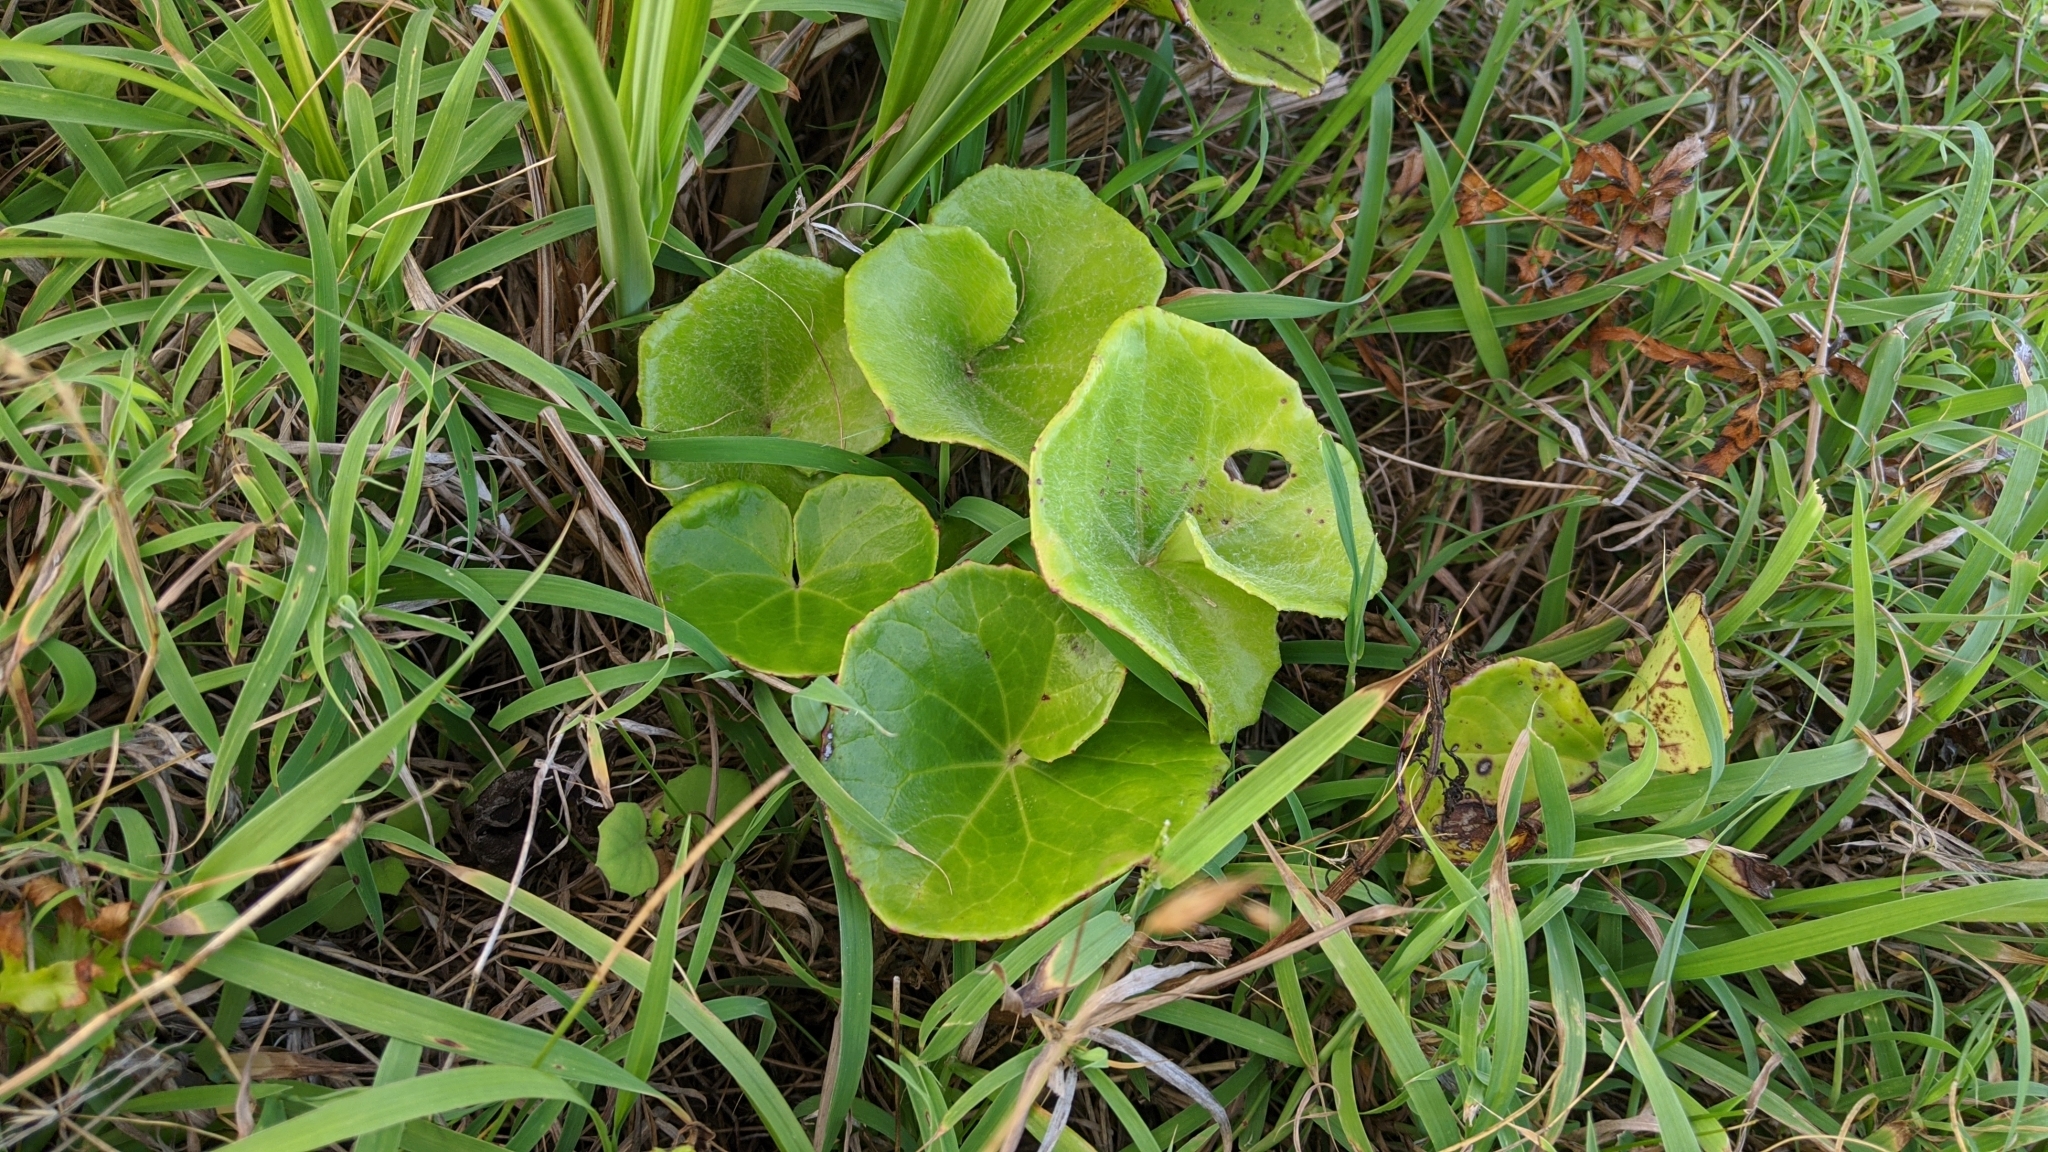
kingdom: Plantae
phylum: Tracheophyta
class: Magnoliopsida
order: Asterales
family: Asteraceae
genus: Farfugium
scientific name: Farfugium japonicum
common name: Leopardplant
